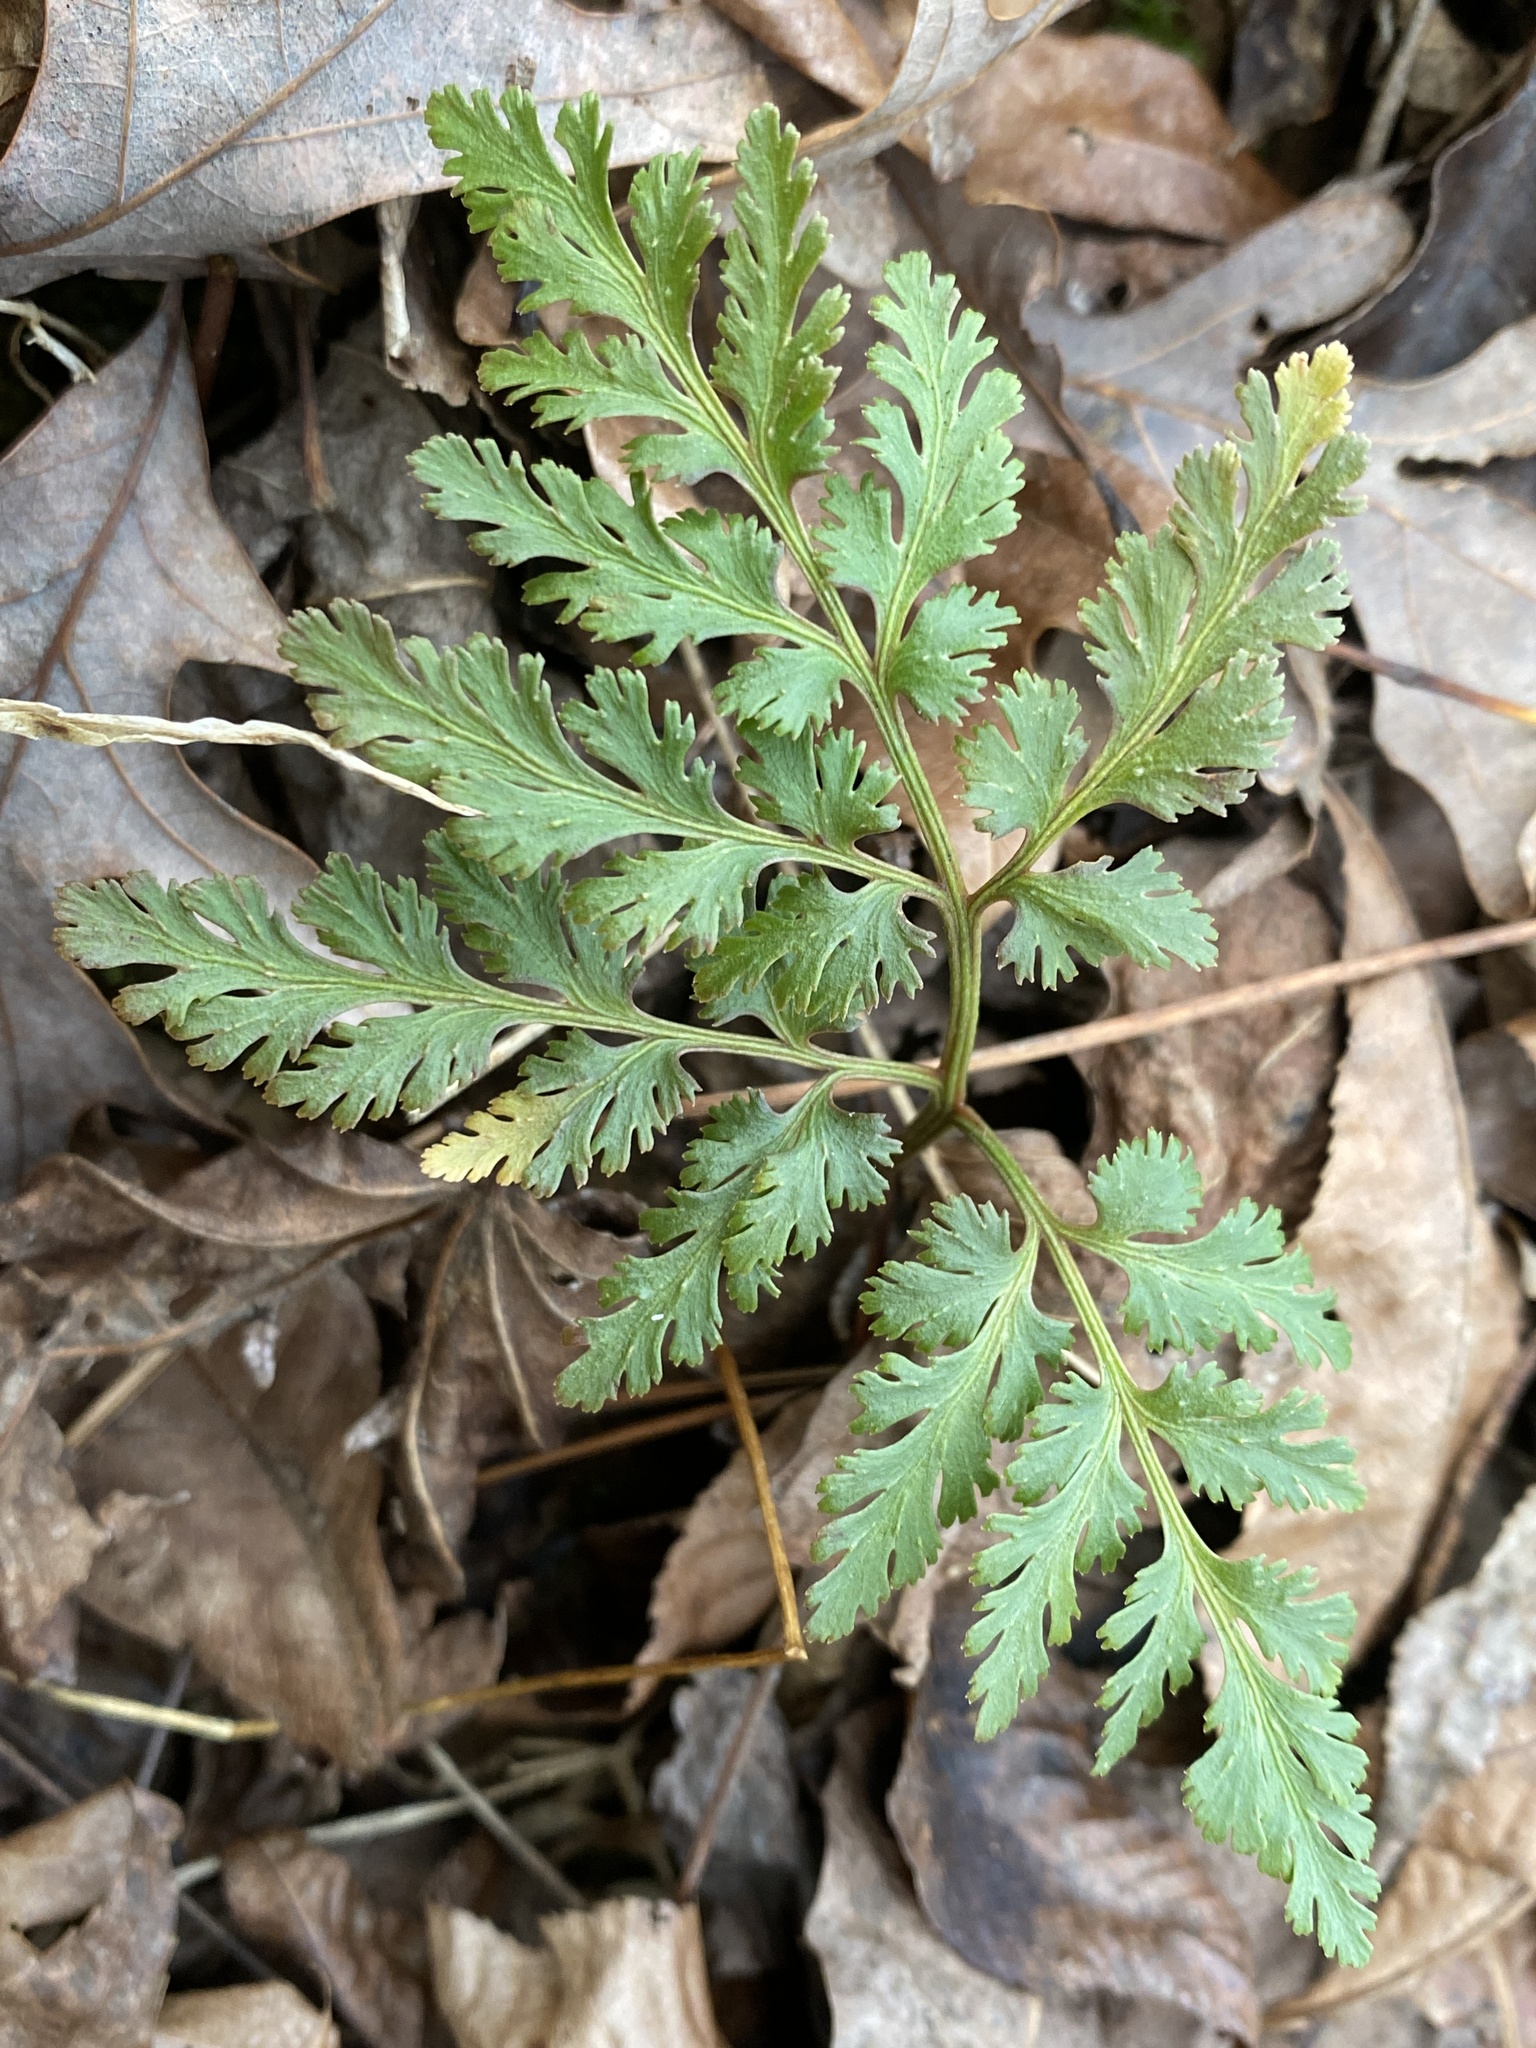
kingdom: Plantae
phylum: Tracheophyta
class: Polypodiopsida
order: Ophioglossales
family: Ophioglossaceae
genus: Sceptridium
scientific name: Sceptridium dissectum
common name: Cut-leaved grapefern
